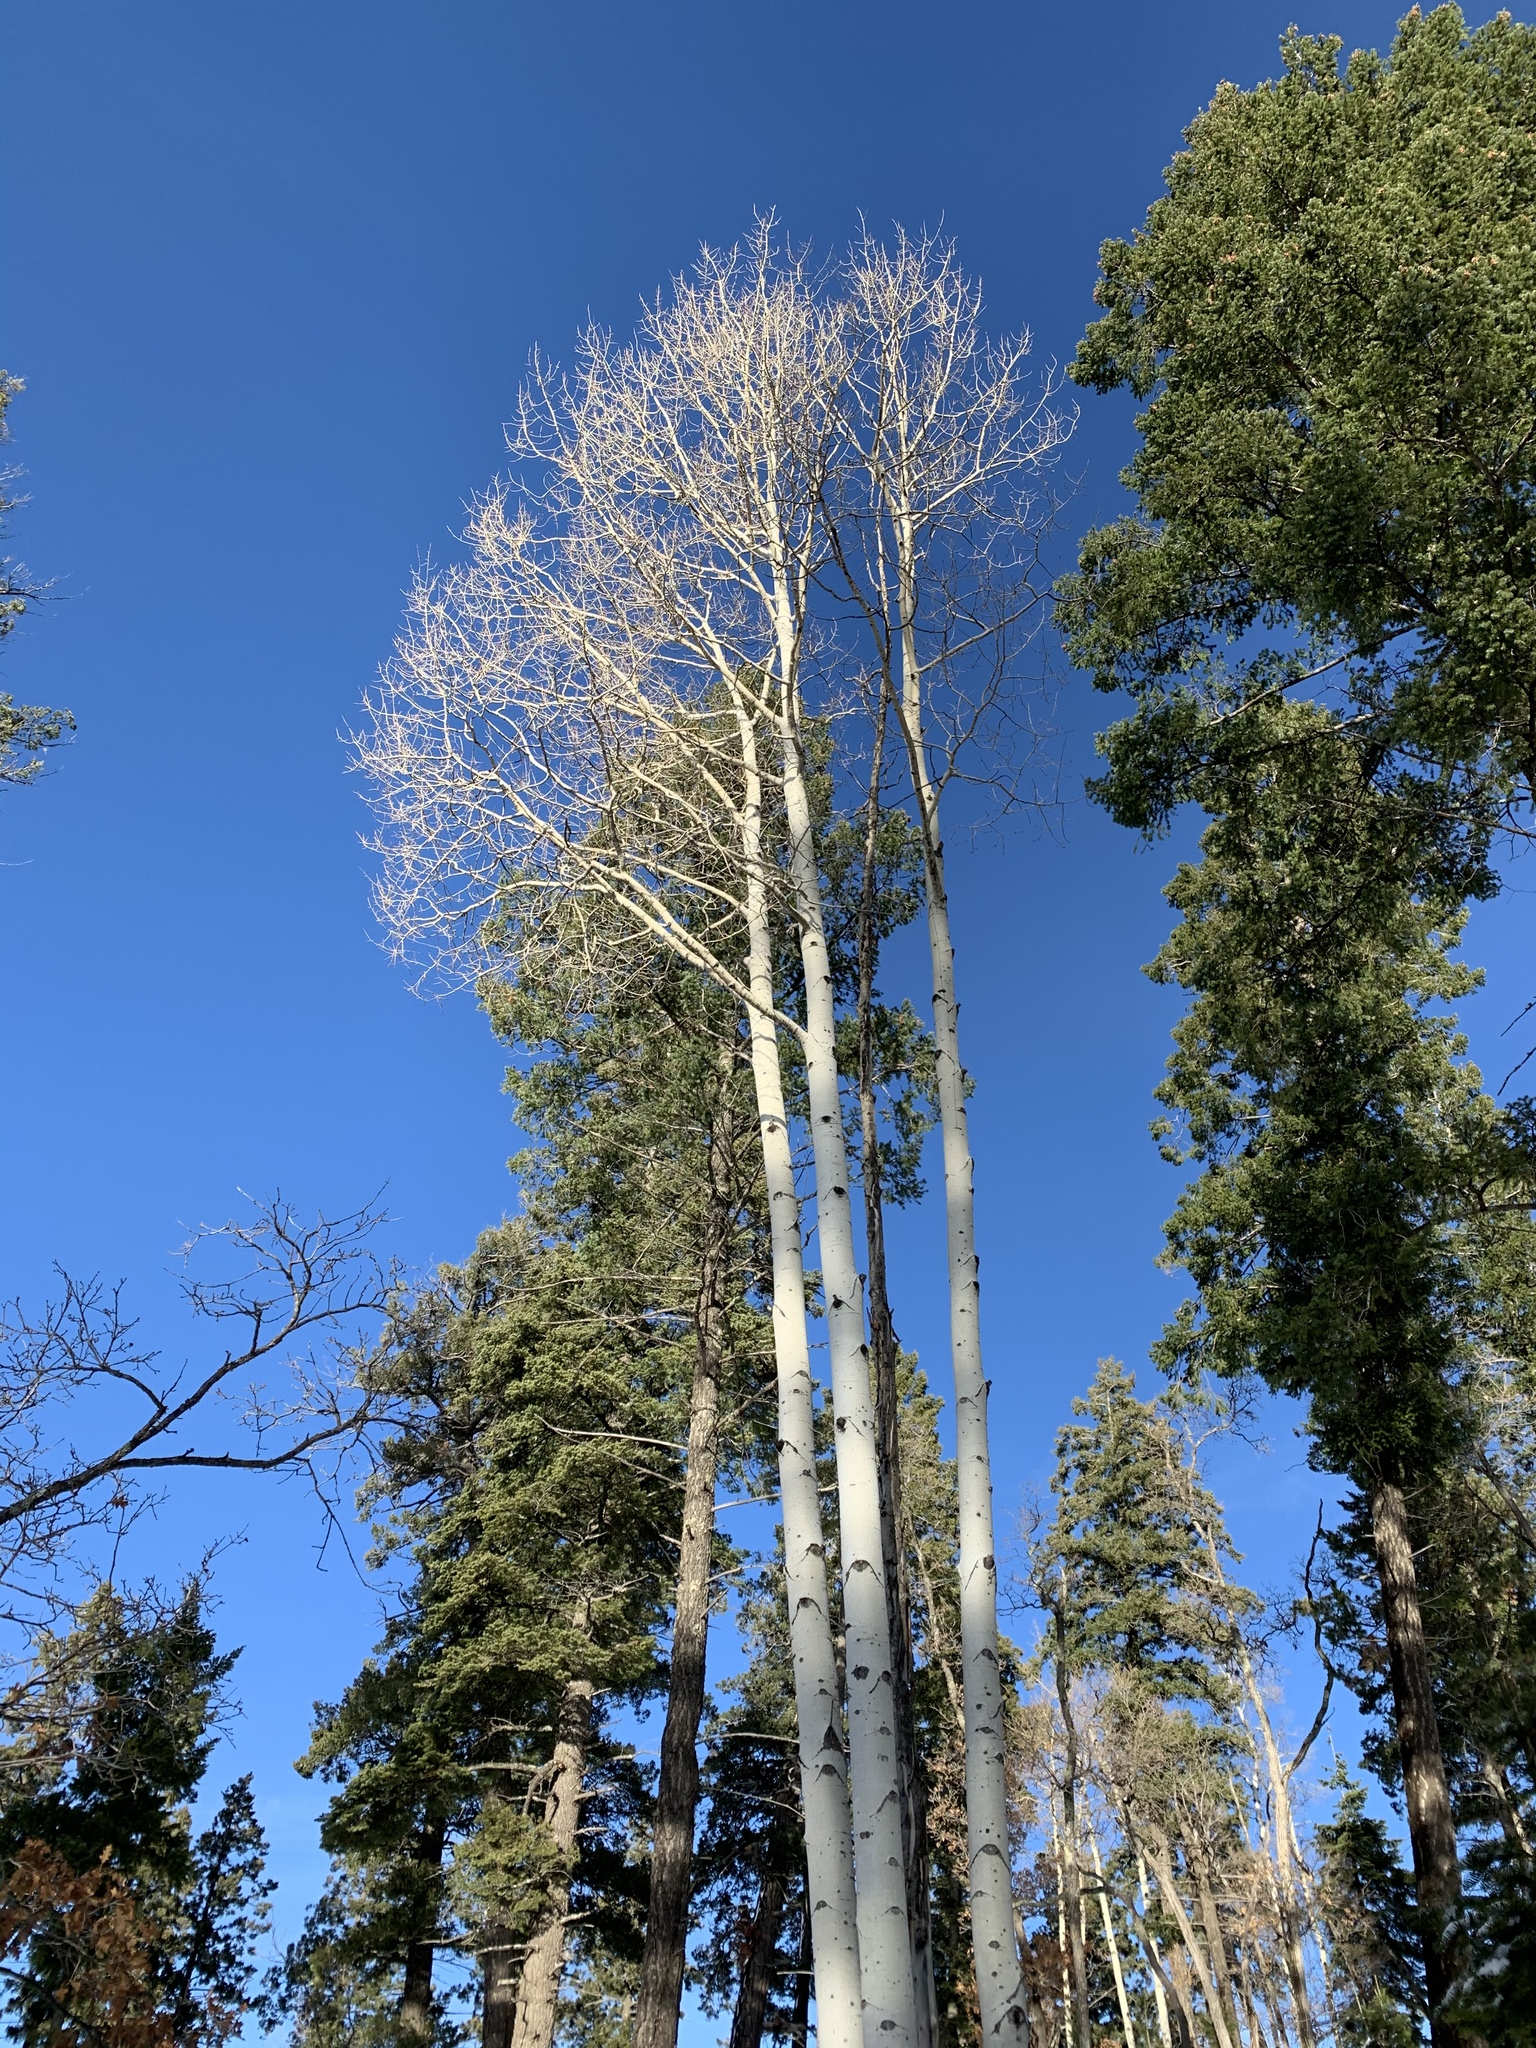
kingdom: Plantae
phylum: Tracheophyta
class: Magnoliopsida
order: Malpighiales
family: Salicaceae
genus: Populus
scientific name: Populus tremuloides
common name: Quaking aspen
